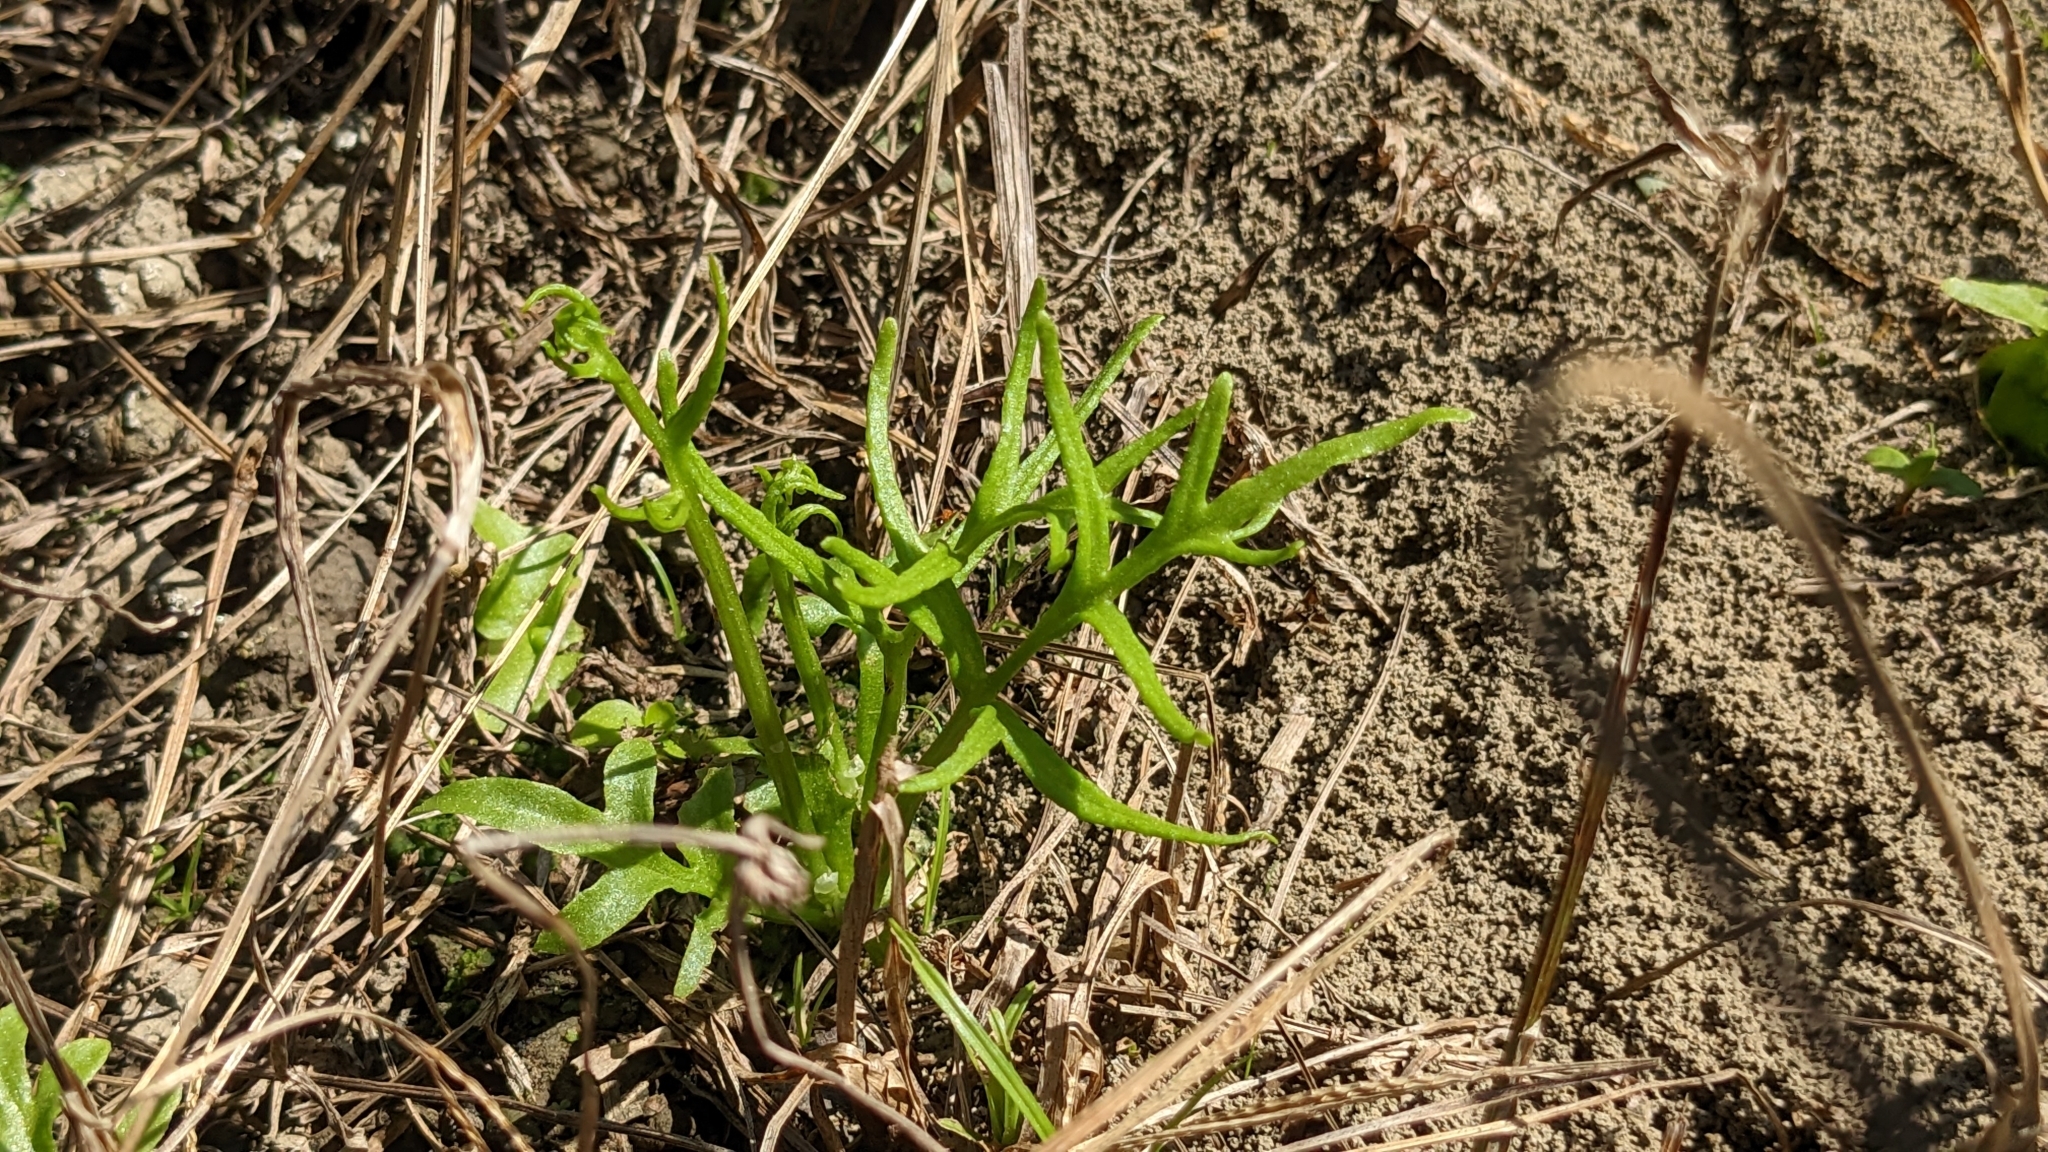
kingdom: Plantae
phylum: Tracheophyta
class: Polypodiopsida
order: Polypodiales
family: Pteridaceae
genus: Ceratopteris
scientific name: Ceratopteris thalictroides
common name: Water fern
